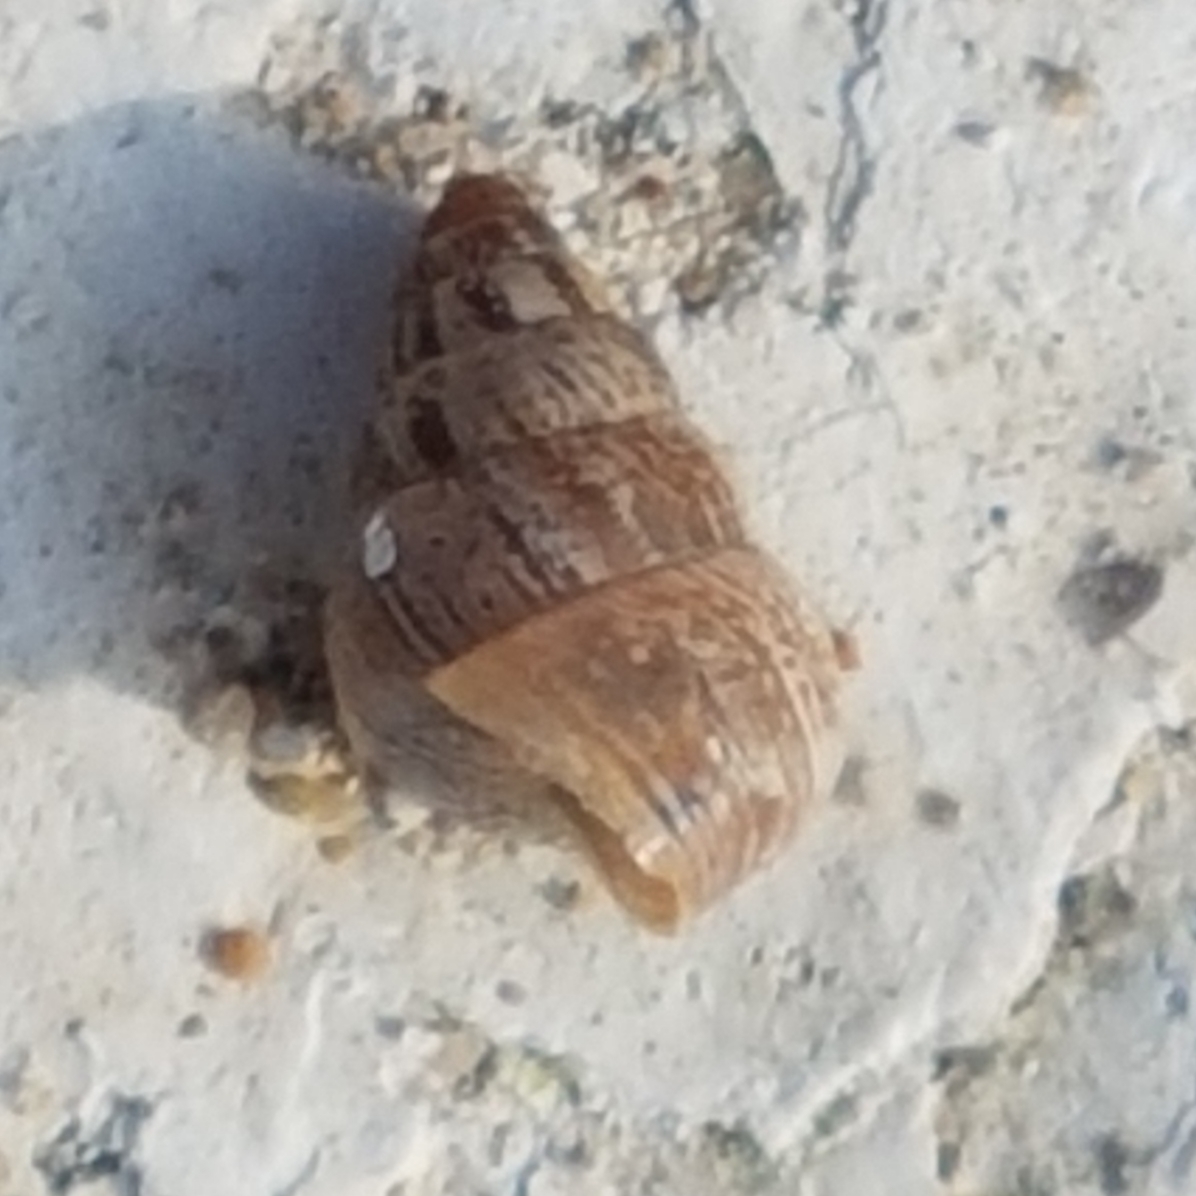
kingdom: Animalia
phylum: Mollusca
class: Gastropoda
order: Stylommatophora
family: Geomitridae
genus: Cochlicella
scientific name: Cochlicella barbara
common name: Potbellied helicellid
